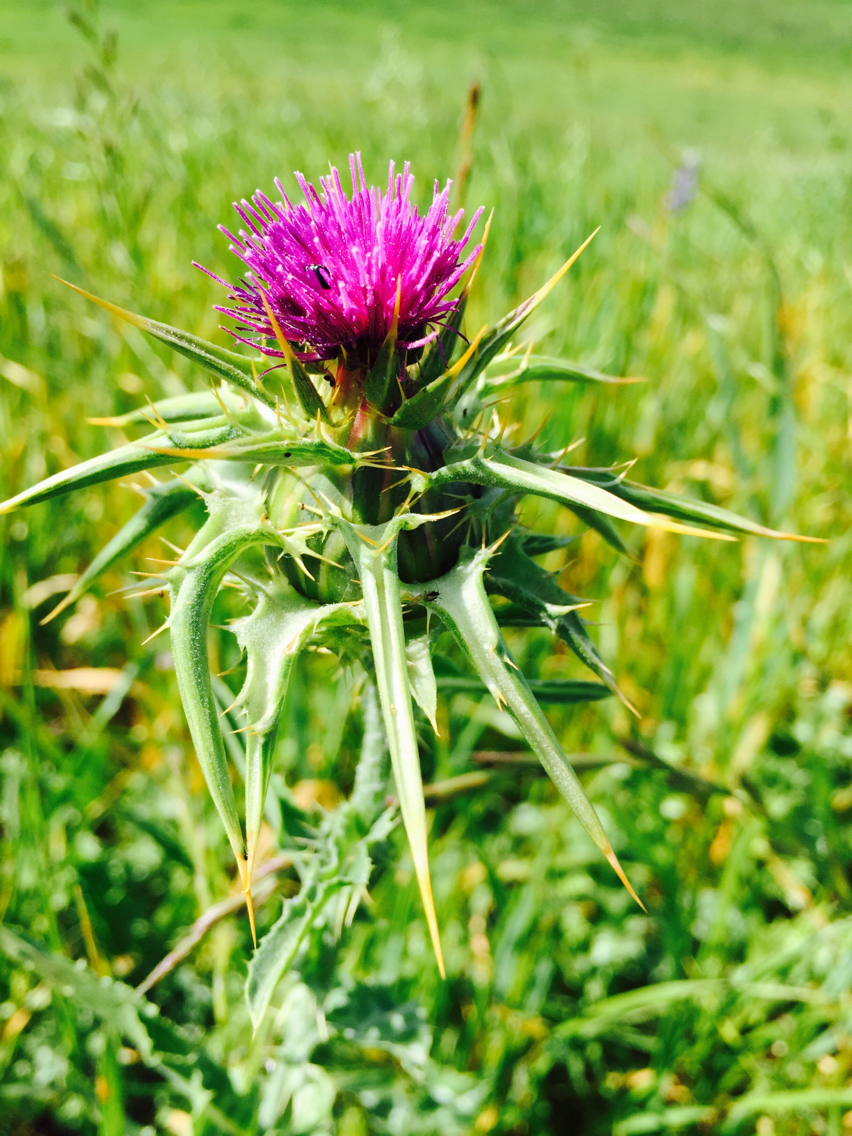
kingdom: Plantae
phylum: Tracheophyta
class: Magnoliopsida
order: Asterales
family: Asteraceae
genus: Silybum
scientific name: Silybum marianum
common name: Milk thistle
